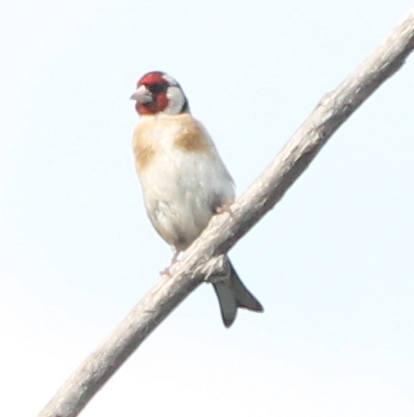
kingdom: Animalia
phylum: Chordata
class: Aves
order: Passeriformes
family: Fringillidae
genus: Carduelis
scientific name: Carduelis carduelis
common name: European goldfinch
